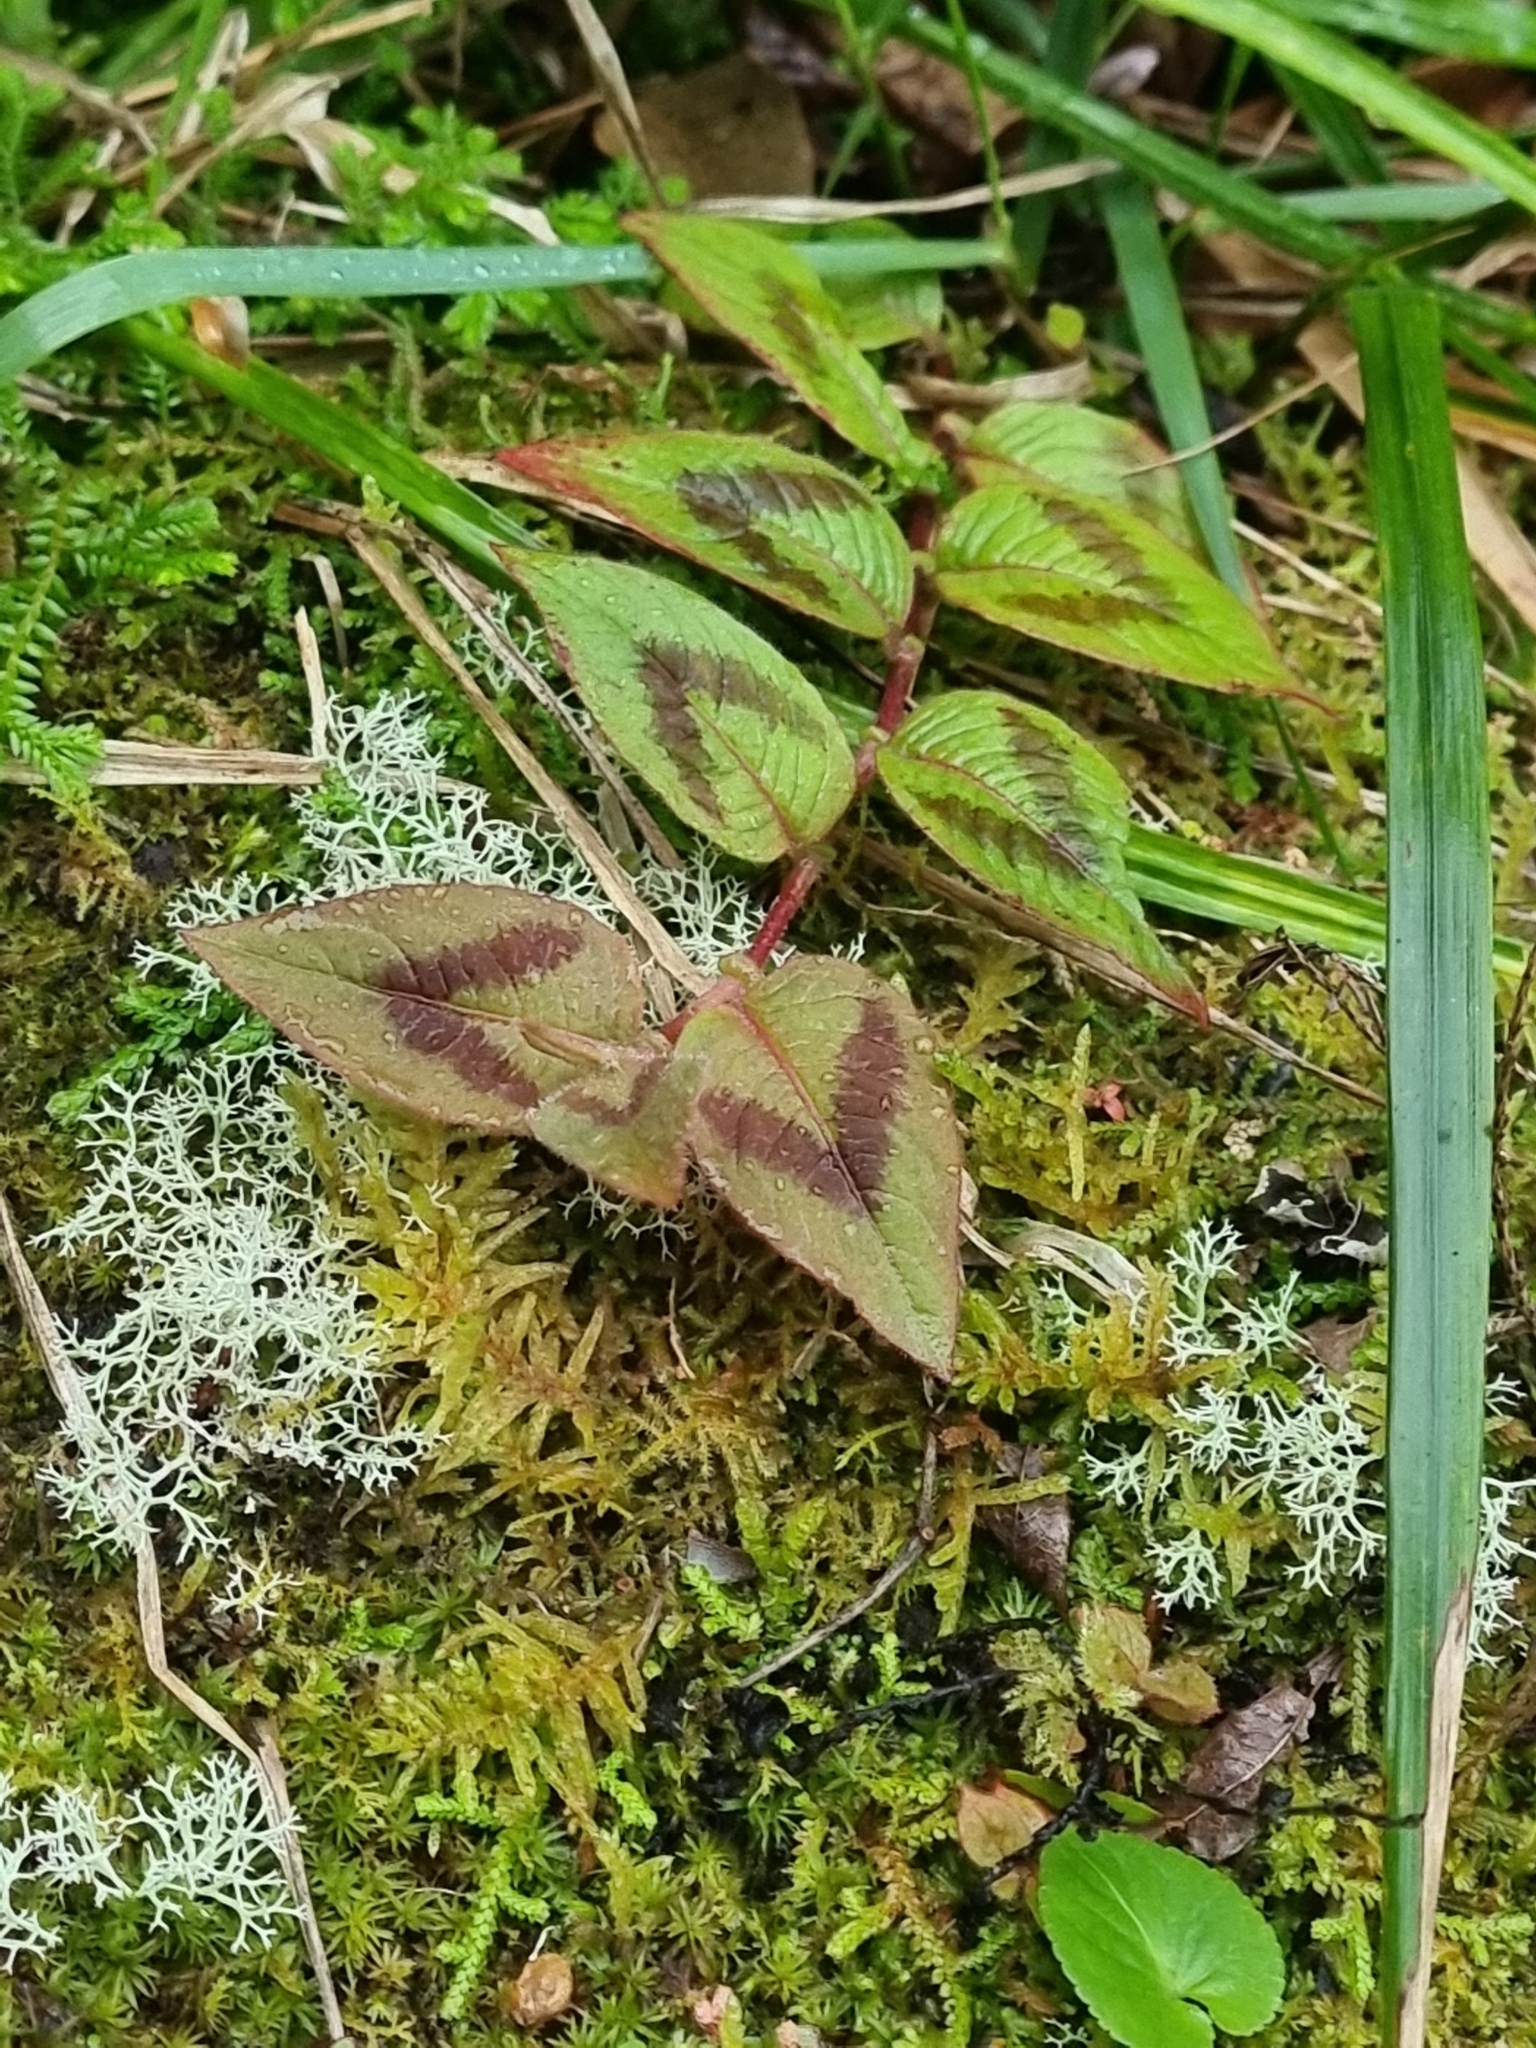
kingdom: Plantae
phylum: Tracheophyta
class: Magnoliopsida
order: Caryophyllales
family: Polygonaceae
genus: Persicaria
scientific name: Persicaria capitata
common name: Pinkhead smartweed
